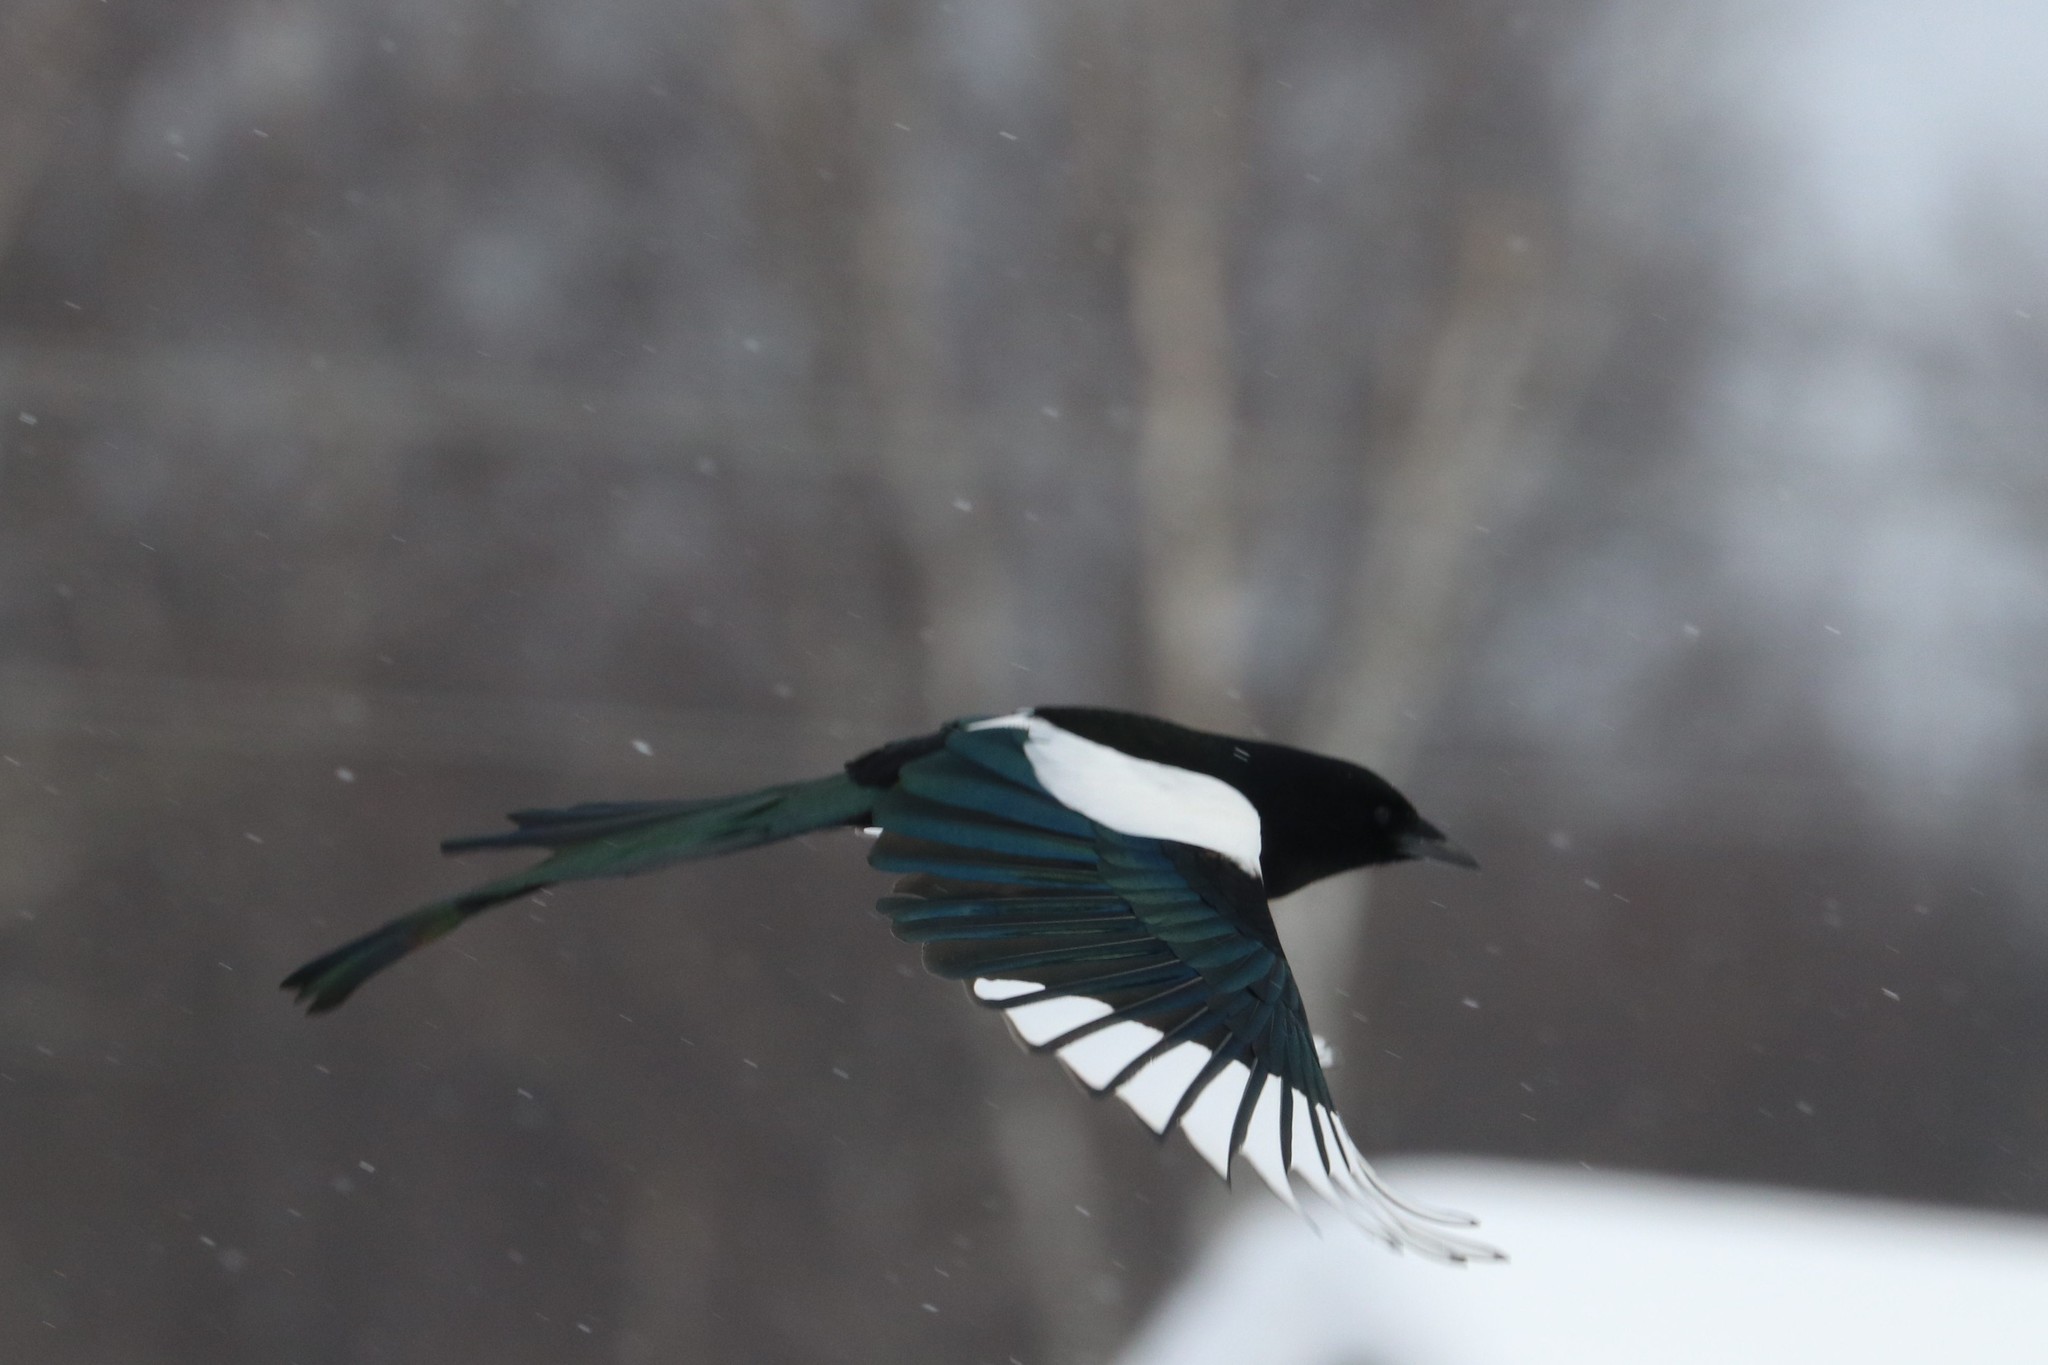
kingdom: Animalia
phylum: Chordata
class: Aves
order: Passeriformes
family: Corvidae
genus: Pica
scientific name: Pica pica
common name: Eurasian magpie
